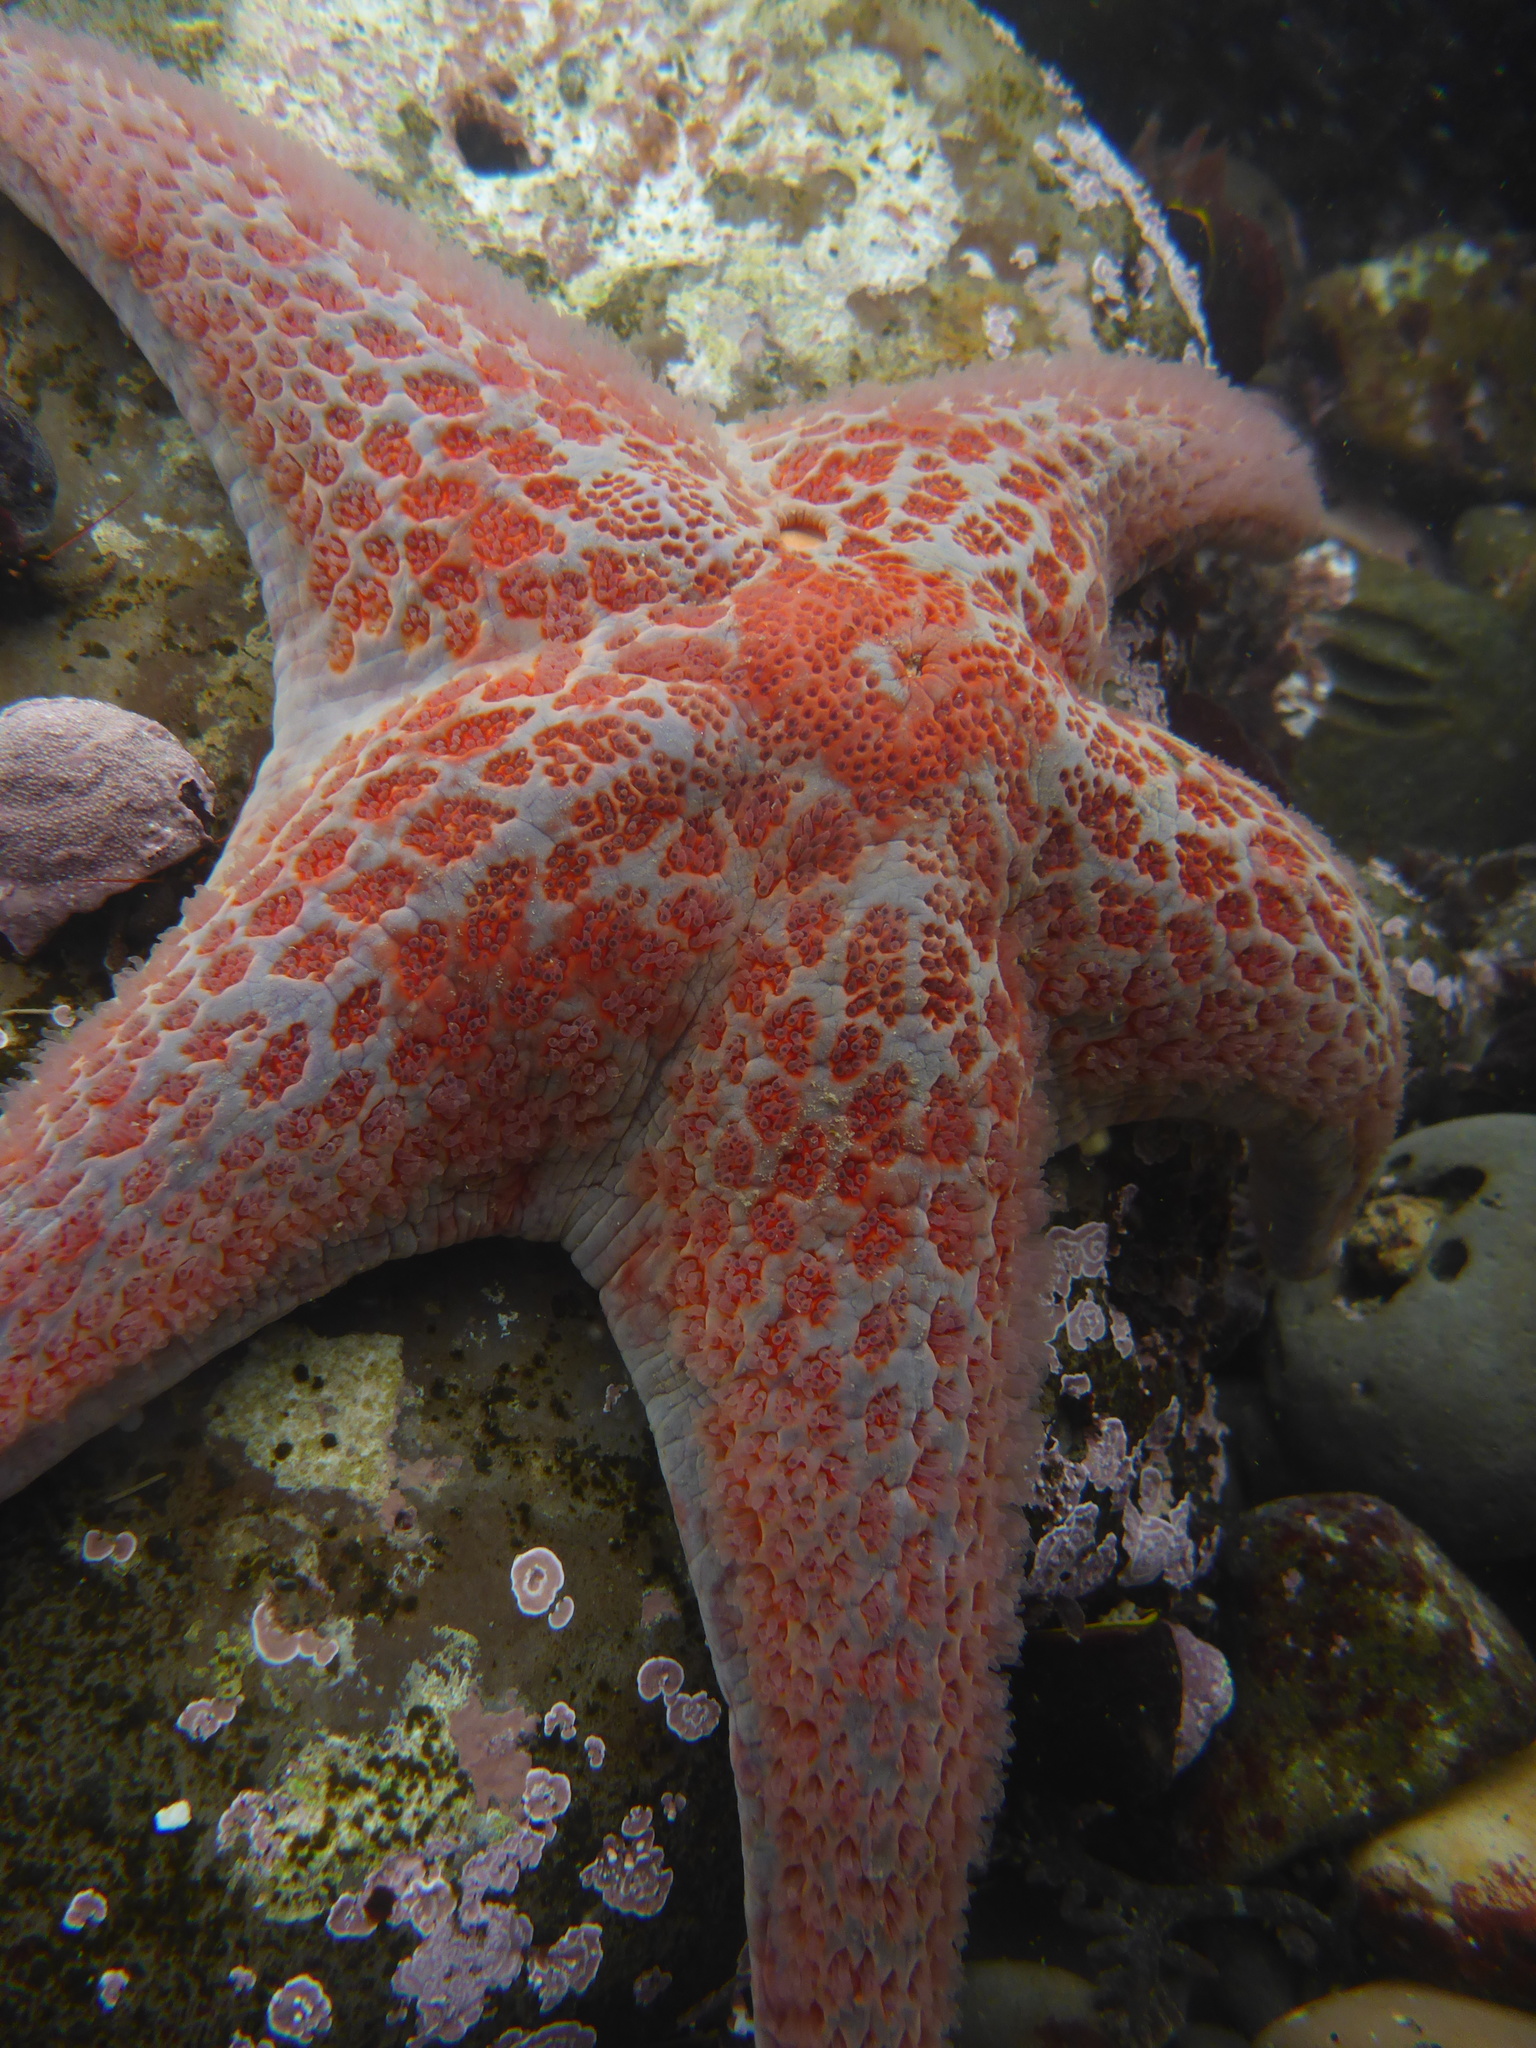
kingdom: Animalia
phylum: Echinodermata
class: Asteroidea
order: Valvatida
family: Asteropseidae
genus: Dermasterias
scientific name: Dermasterias imbricata
